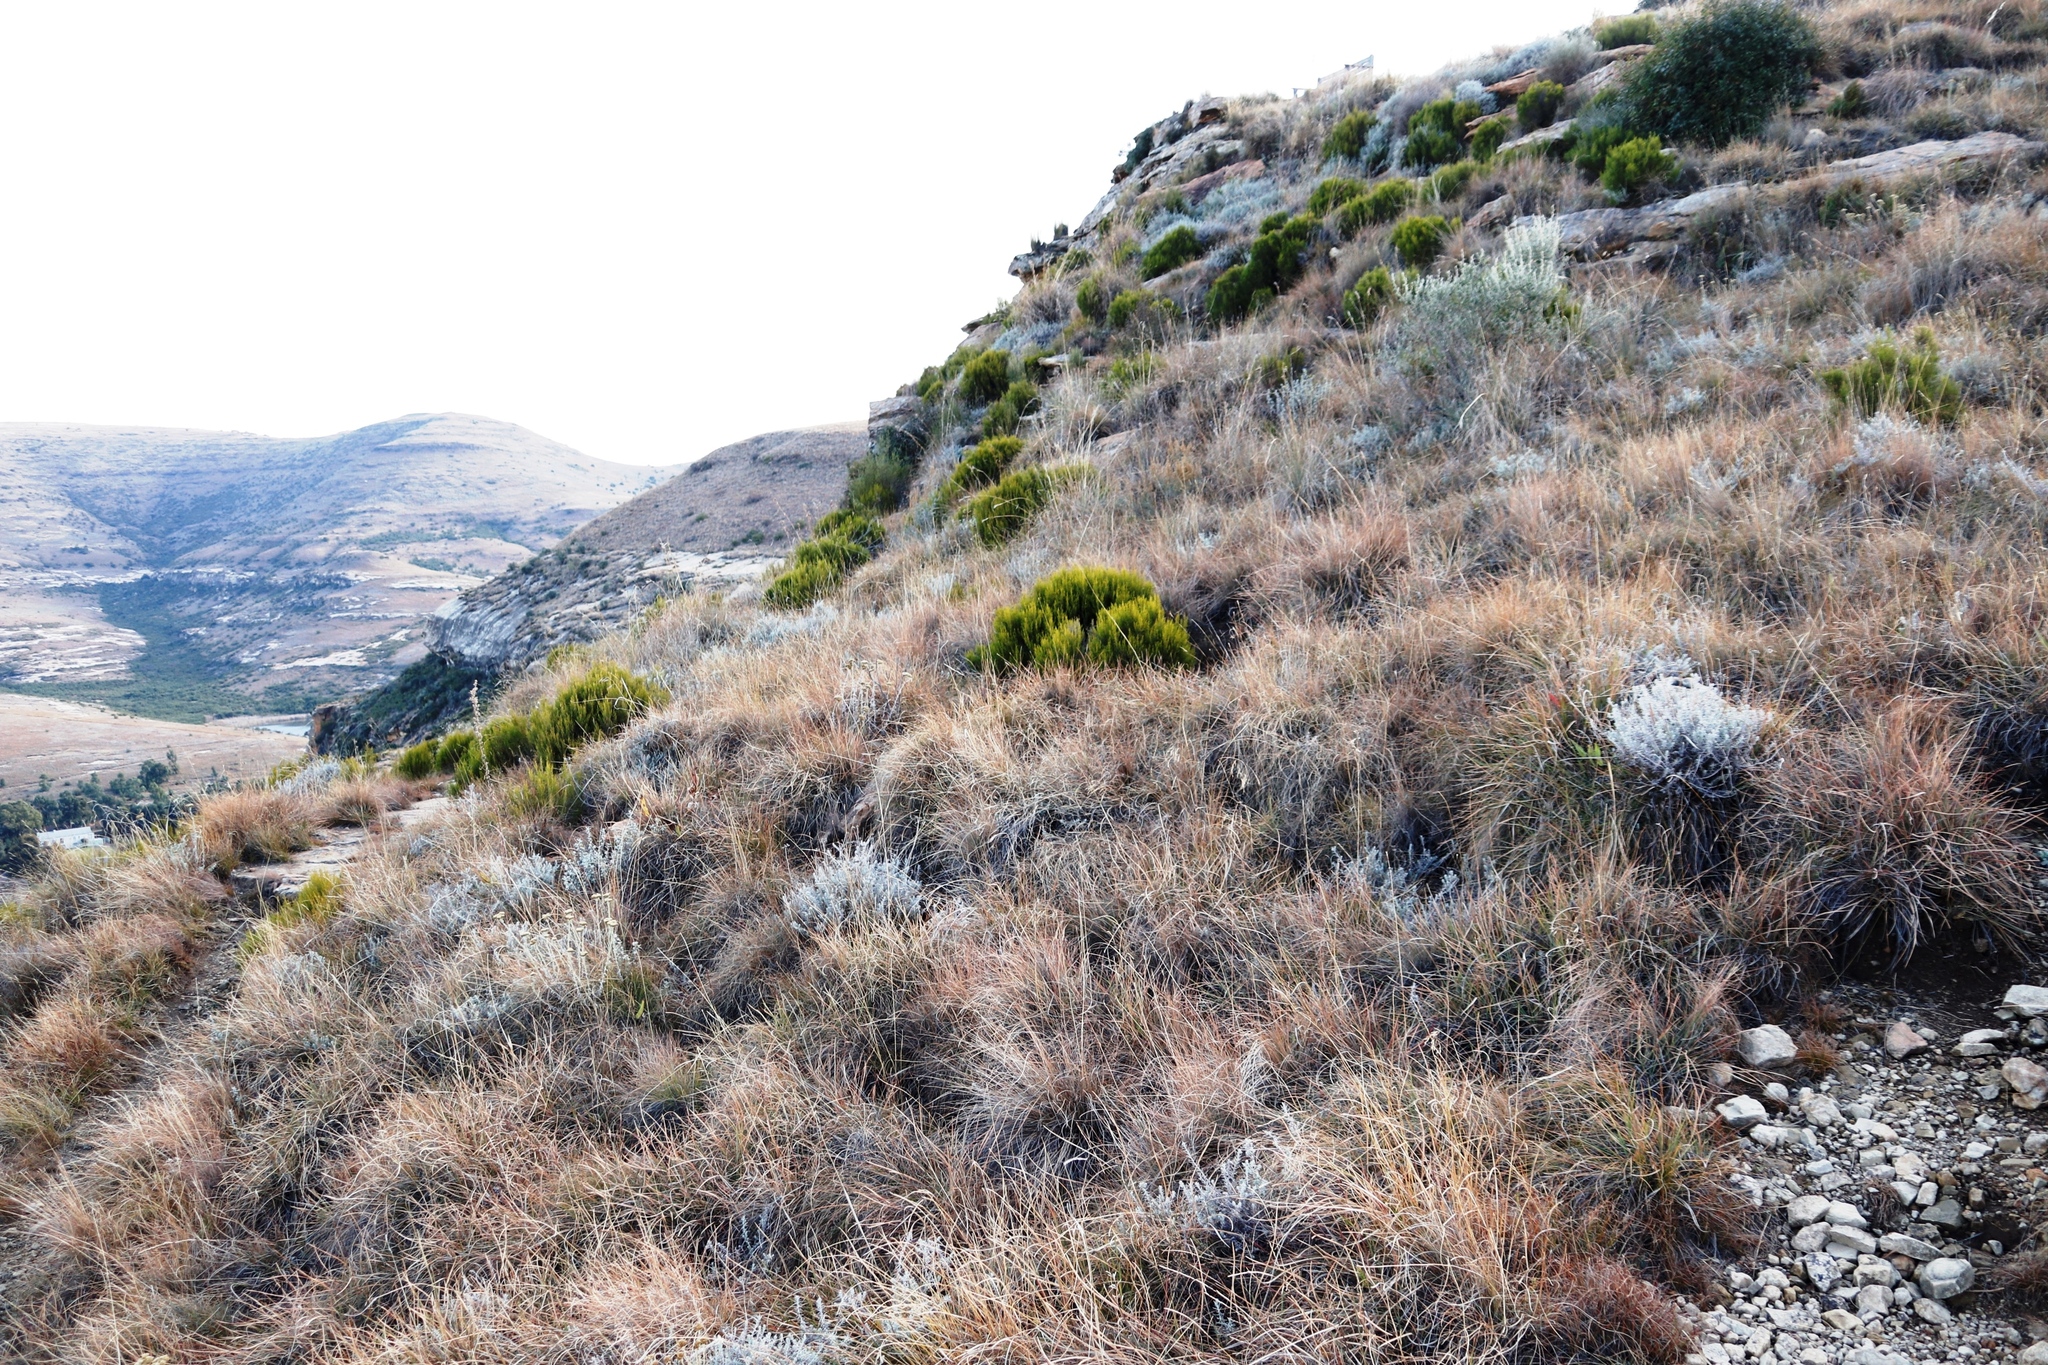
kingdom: Plantae
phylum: Tracheophyta
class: Magnoliopsida
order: Ericales
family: Ericaceae
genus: Erica
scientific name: Erica maesta
